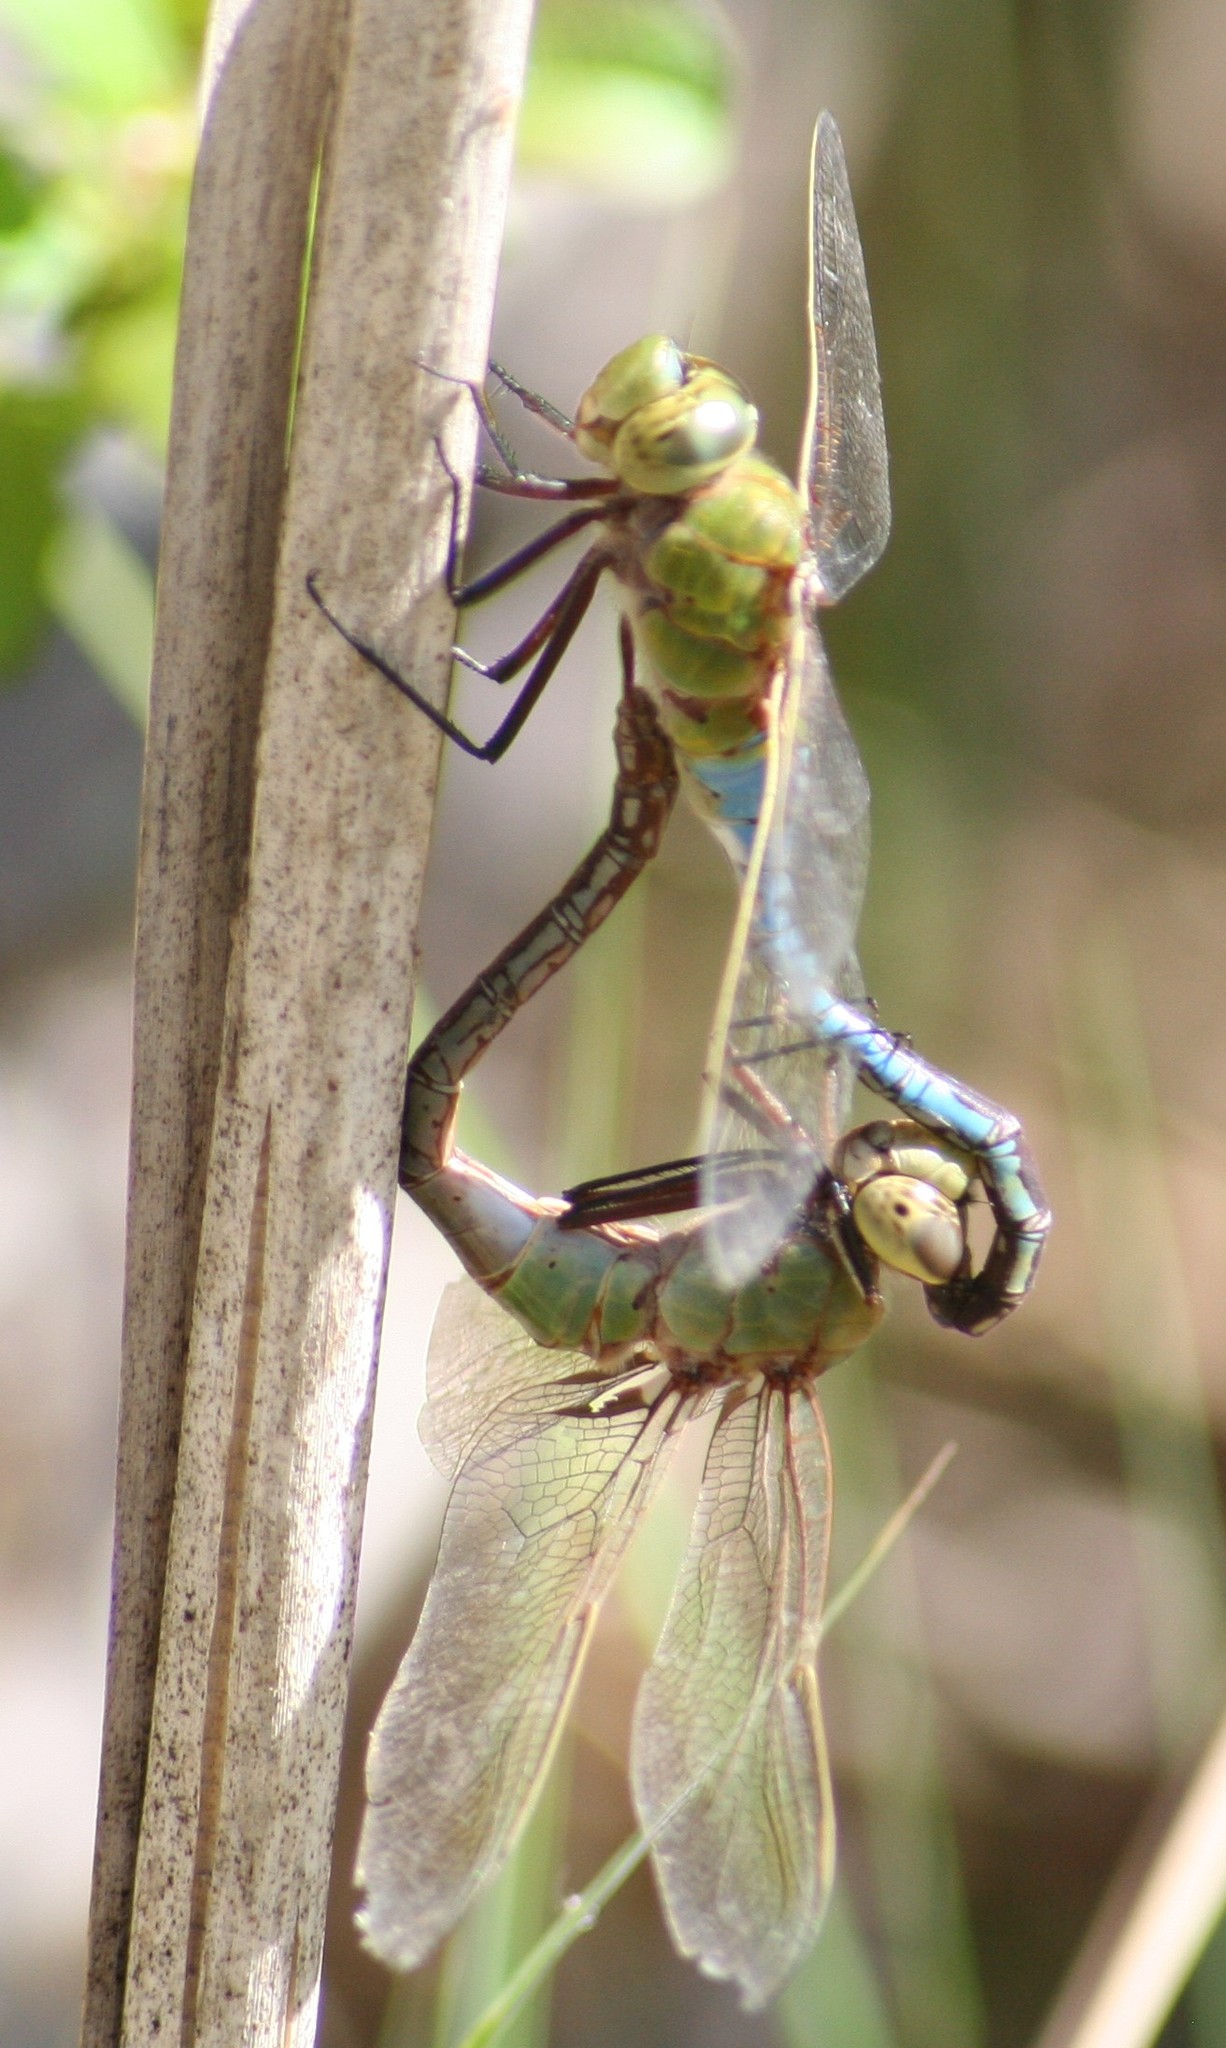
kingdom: Animalia
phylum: Arthropoda
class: Insecta
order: Odonata
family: Aeshnidae
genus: Anax
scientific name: Anax junius
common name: Common green darner
